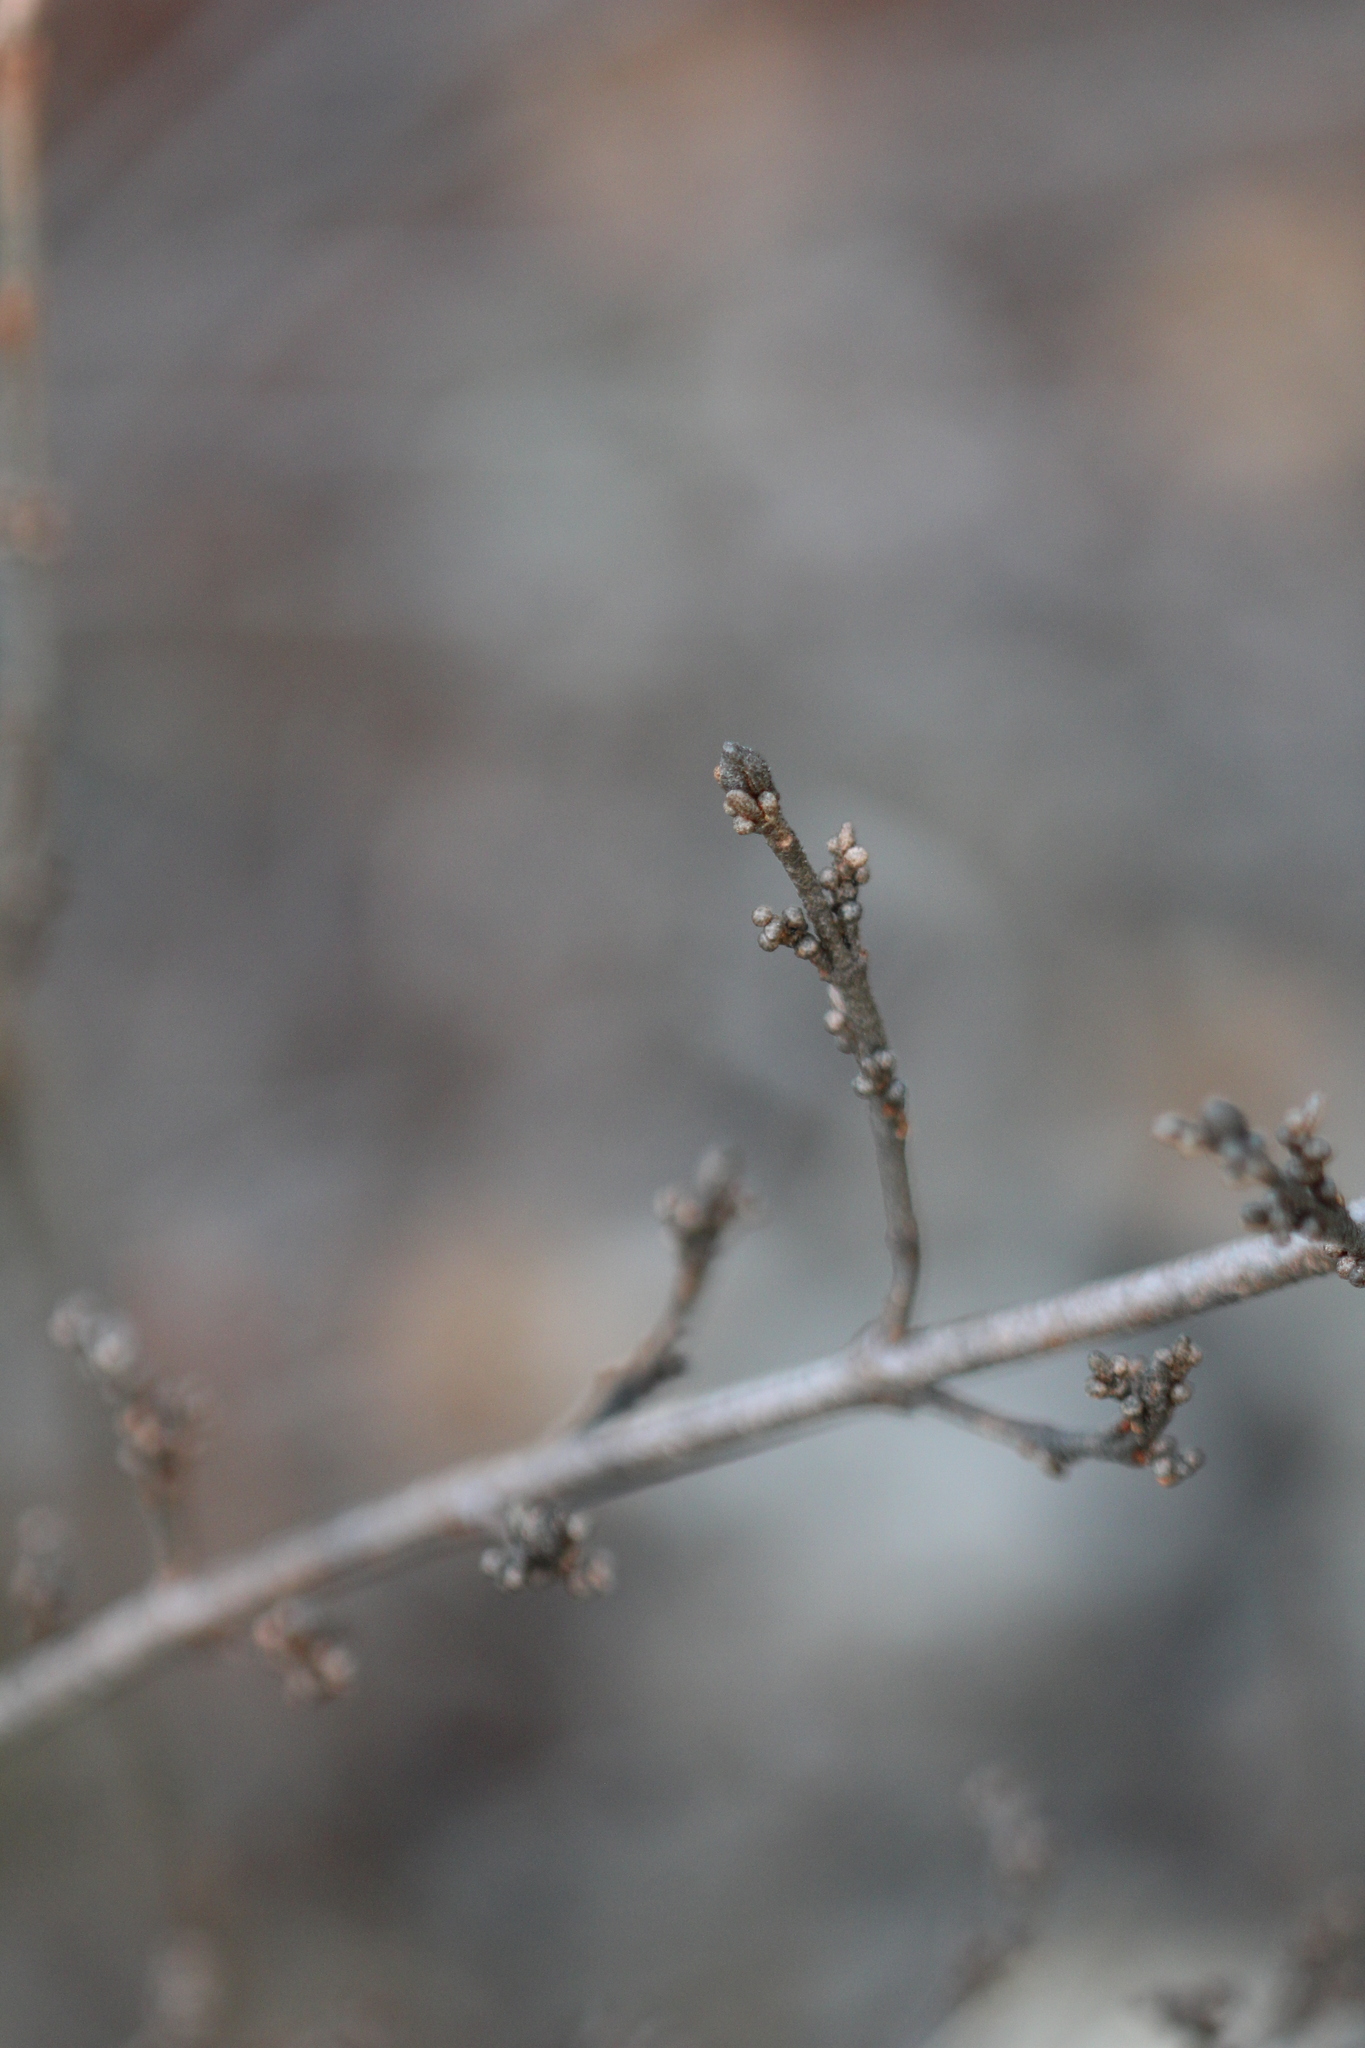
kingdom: Plantae
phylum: Tracheophyta
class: Magnoliopsida
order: Rosales
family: Elaeagnaceae
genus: Shepherdia
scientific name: Shepherdia canadensis
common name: Soapberry
